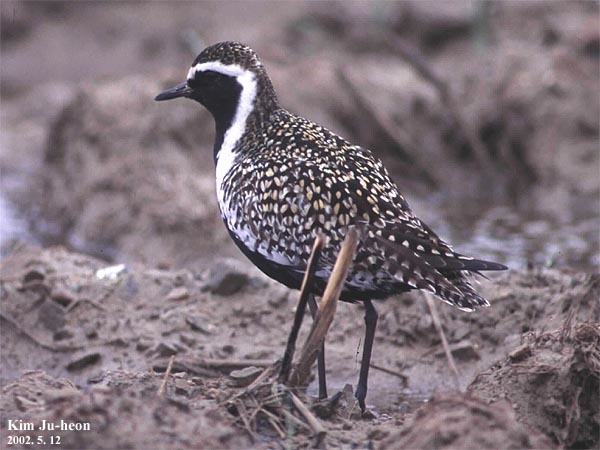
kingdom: Animalia
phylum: Chordata
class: Aves
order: Charadriiformes
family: Charadriidae
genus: Pluvialis
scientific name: Pluvialis fulva
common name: Pacific golden plover
